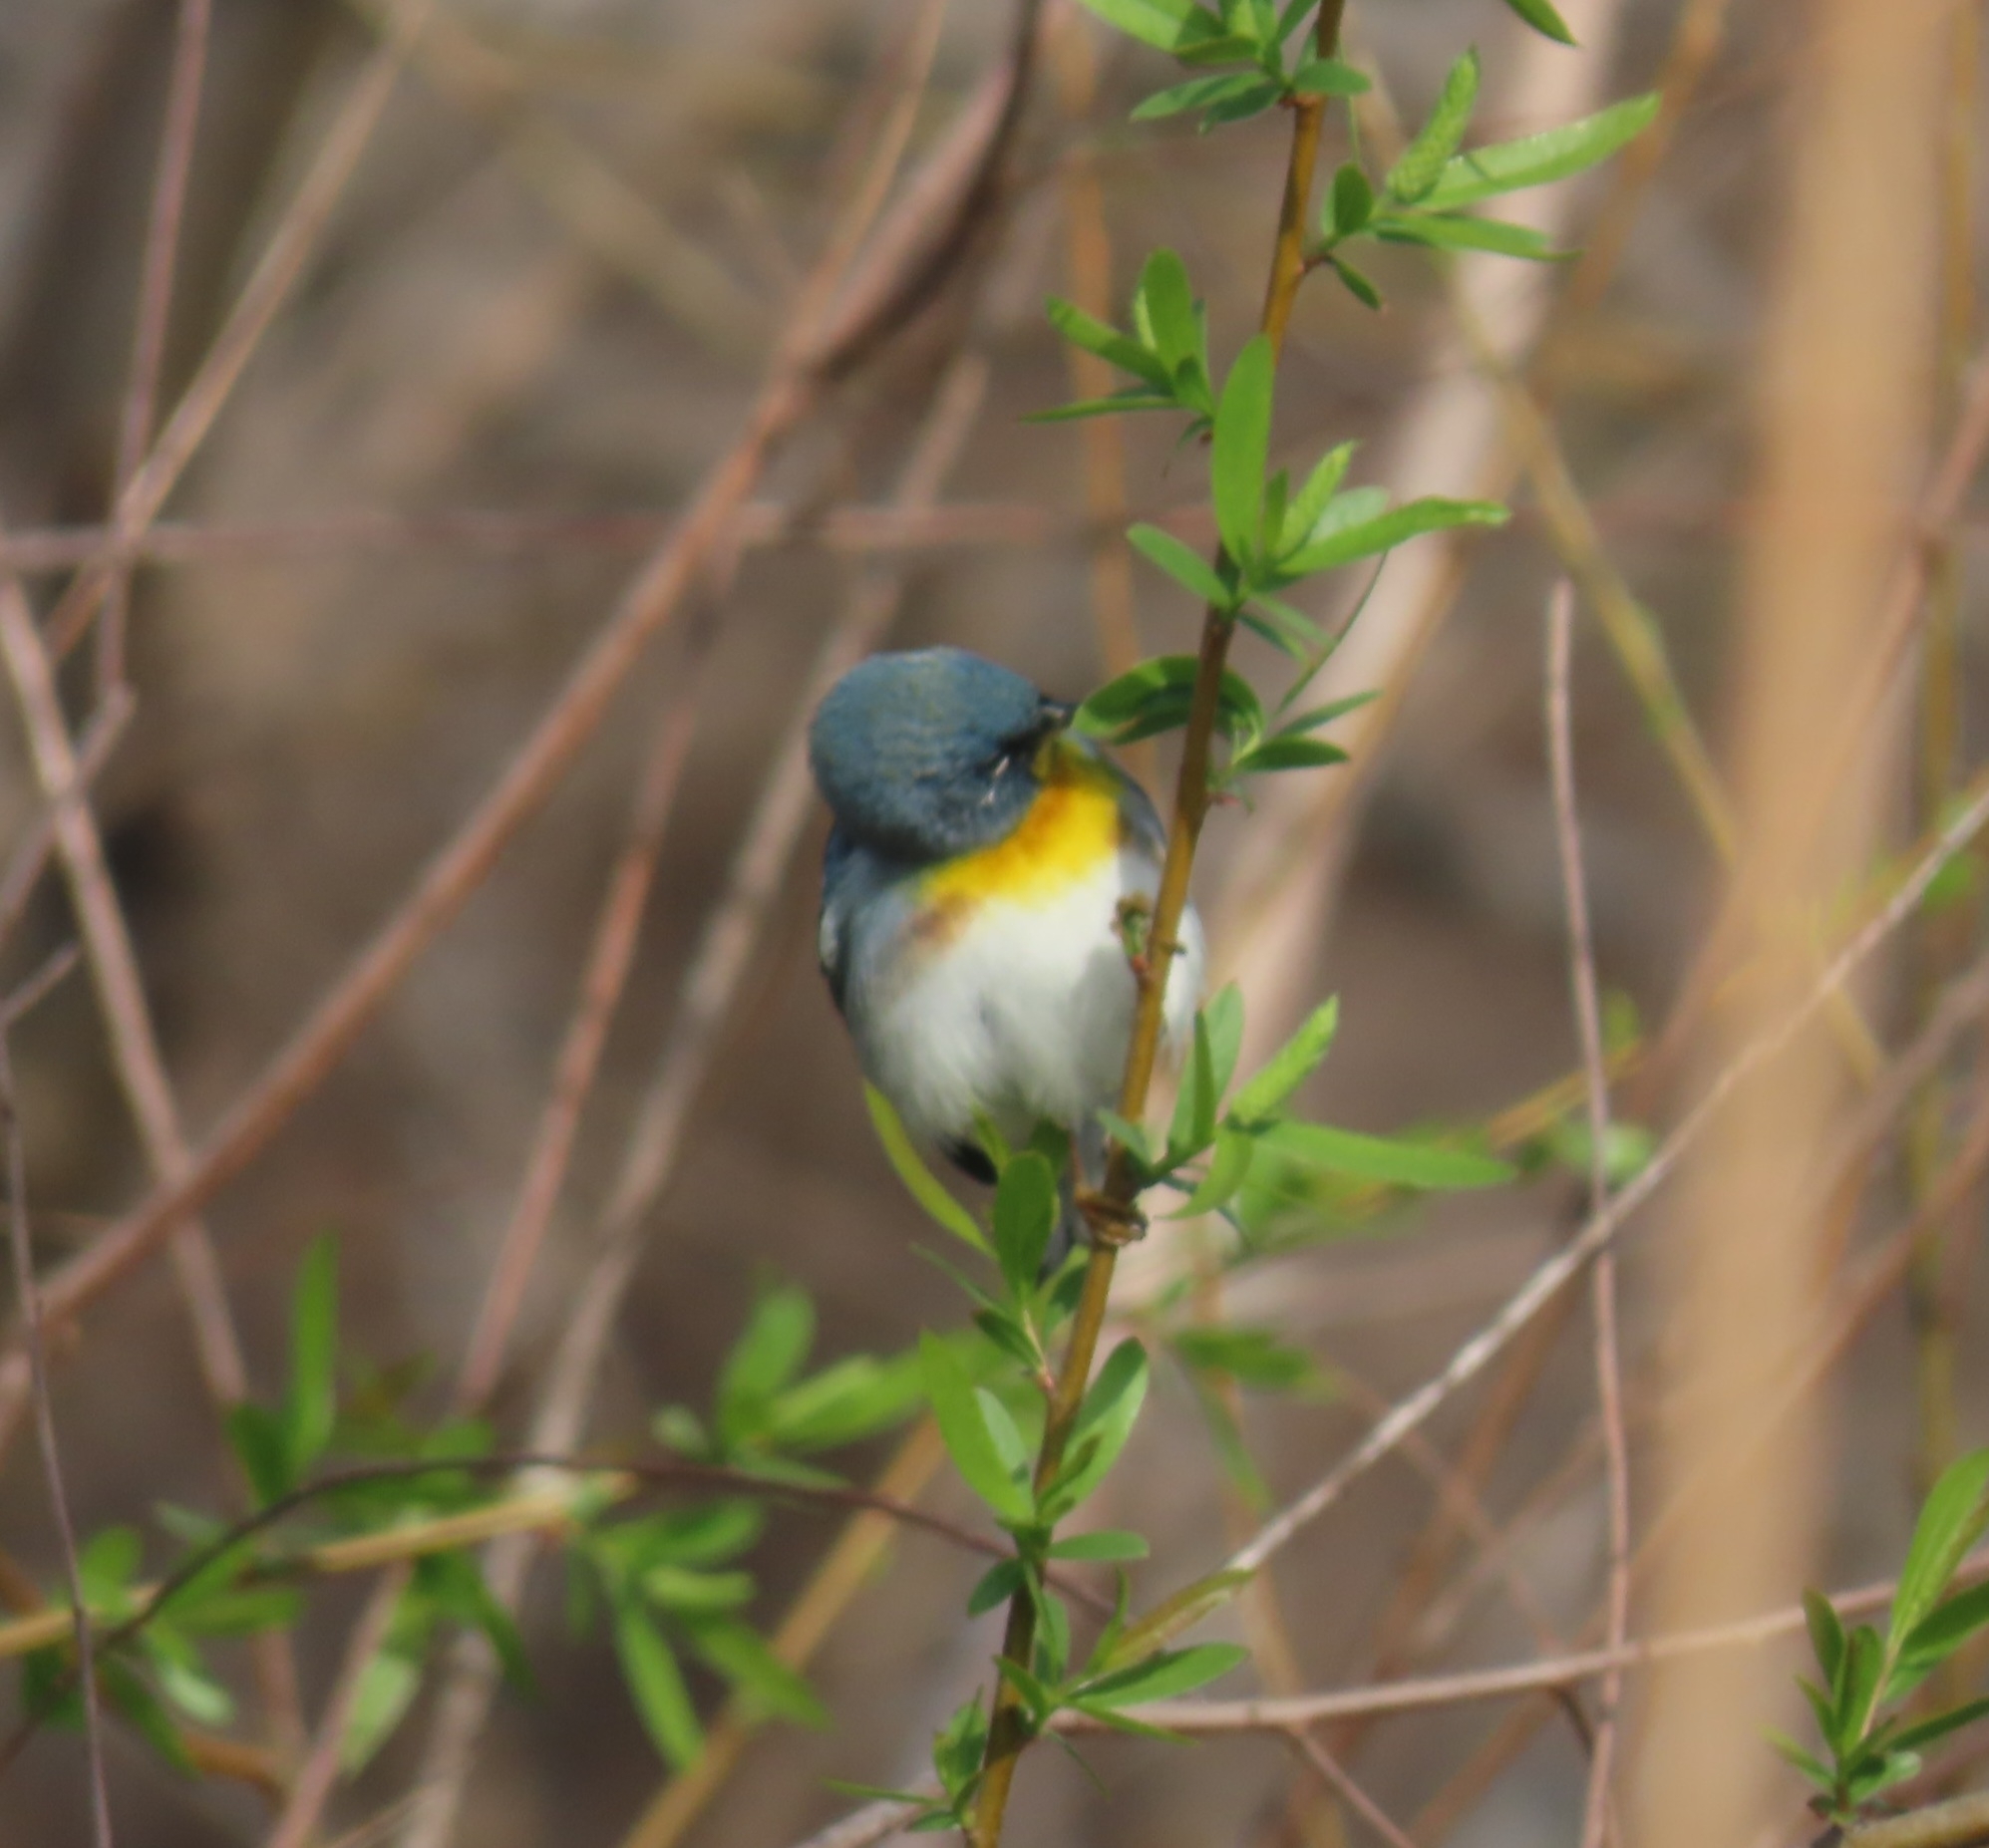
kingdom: Animalia
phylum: Chordata
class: Aves
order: Passeriformes
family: Parulidae
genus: Setophaga
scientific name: Setophaga americana
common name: Northern parula
